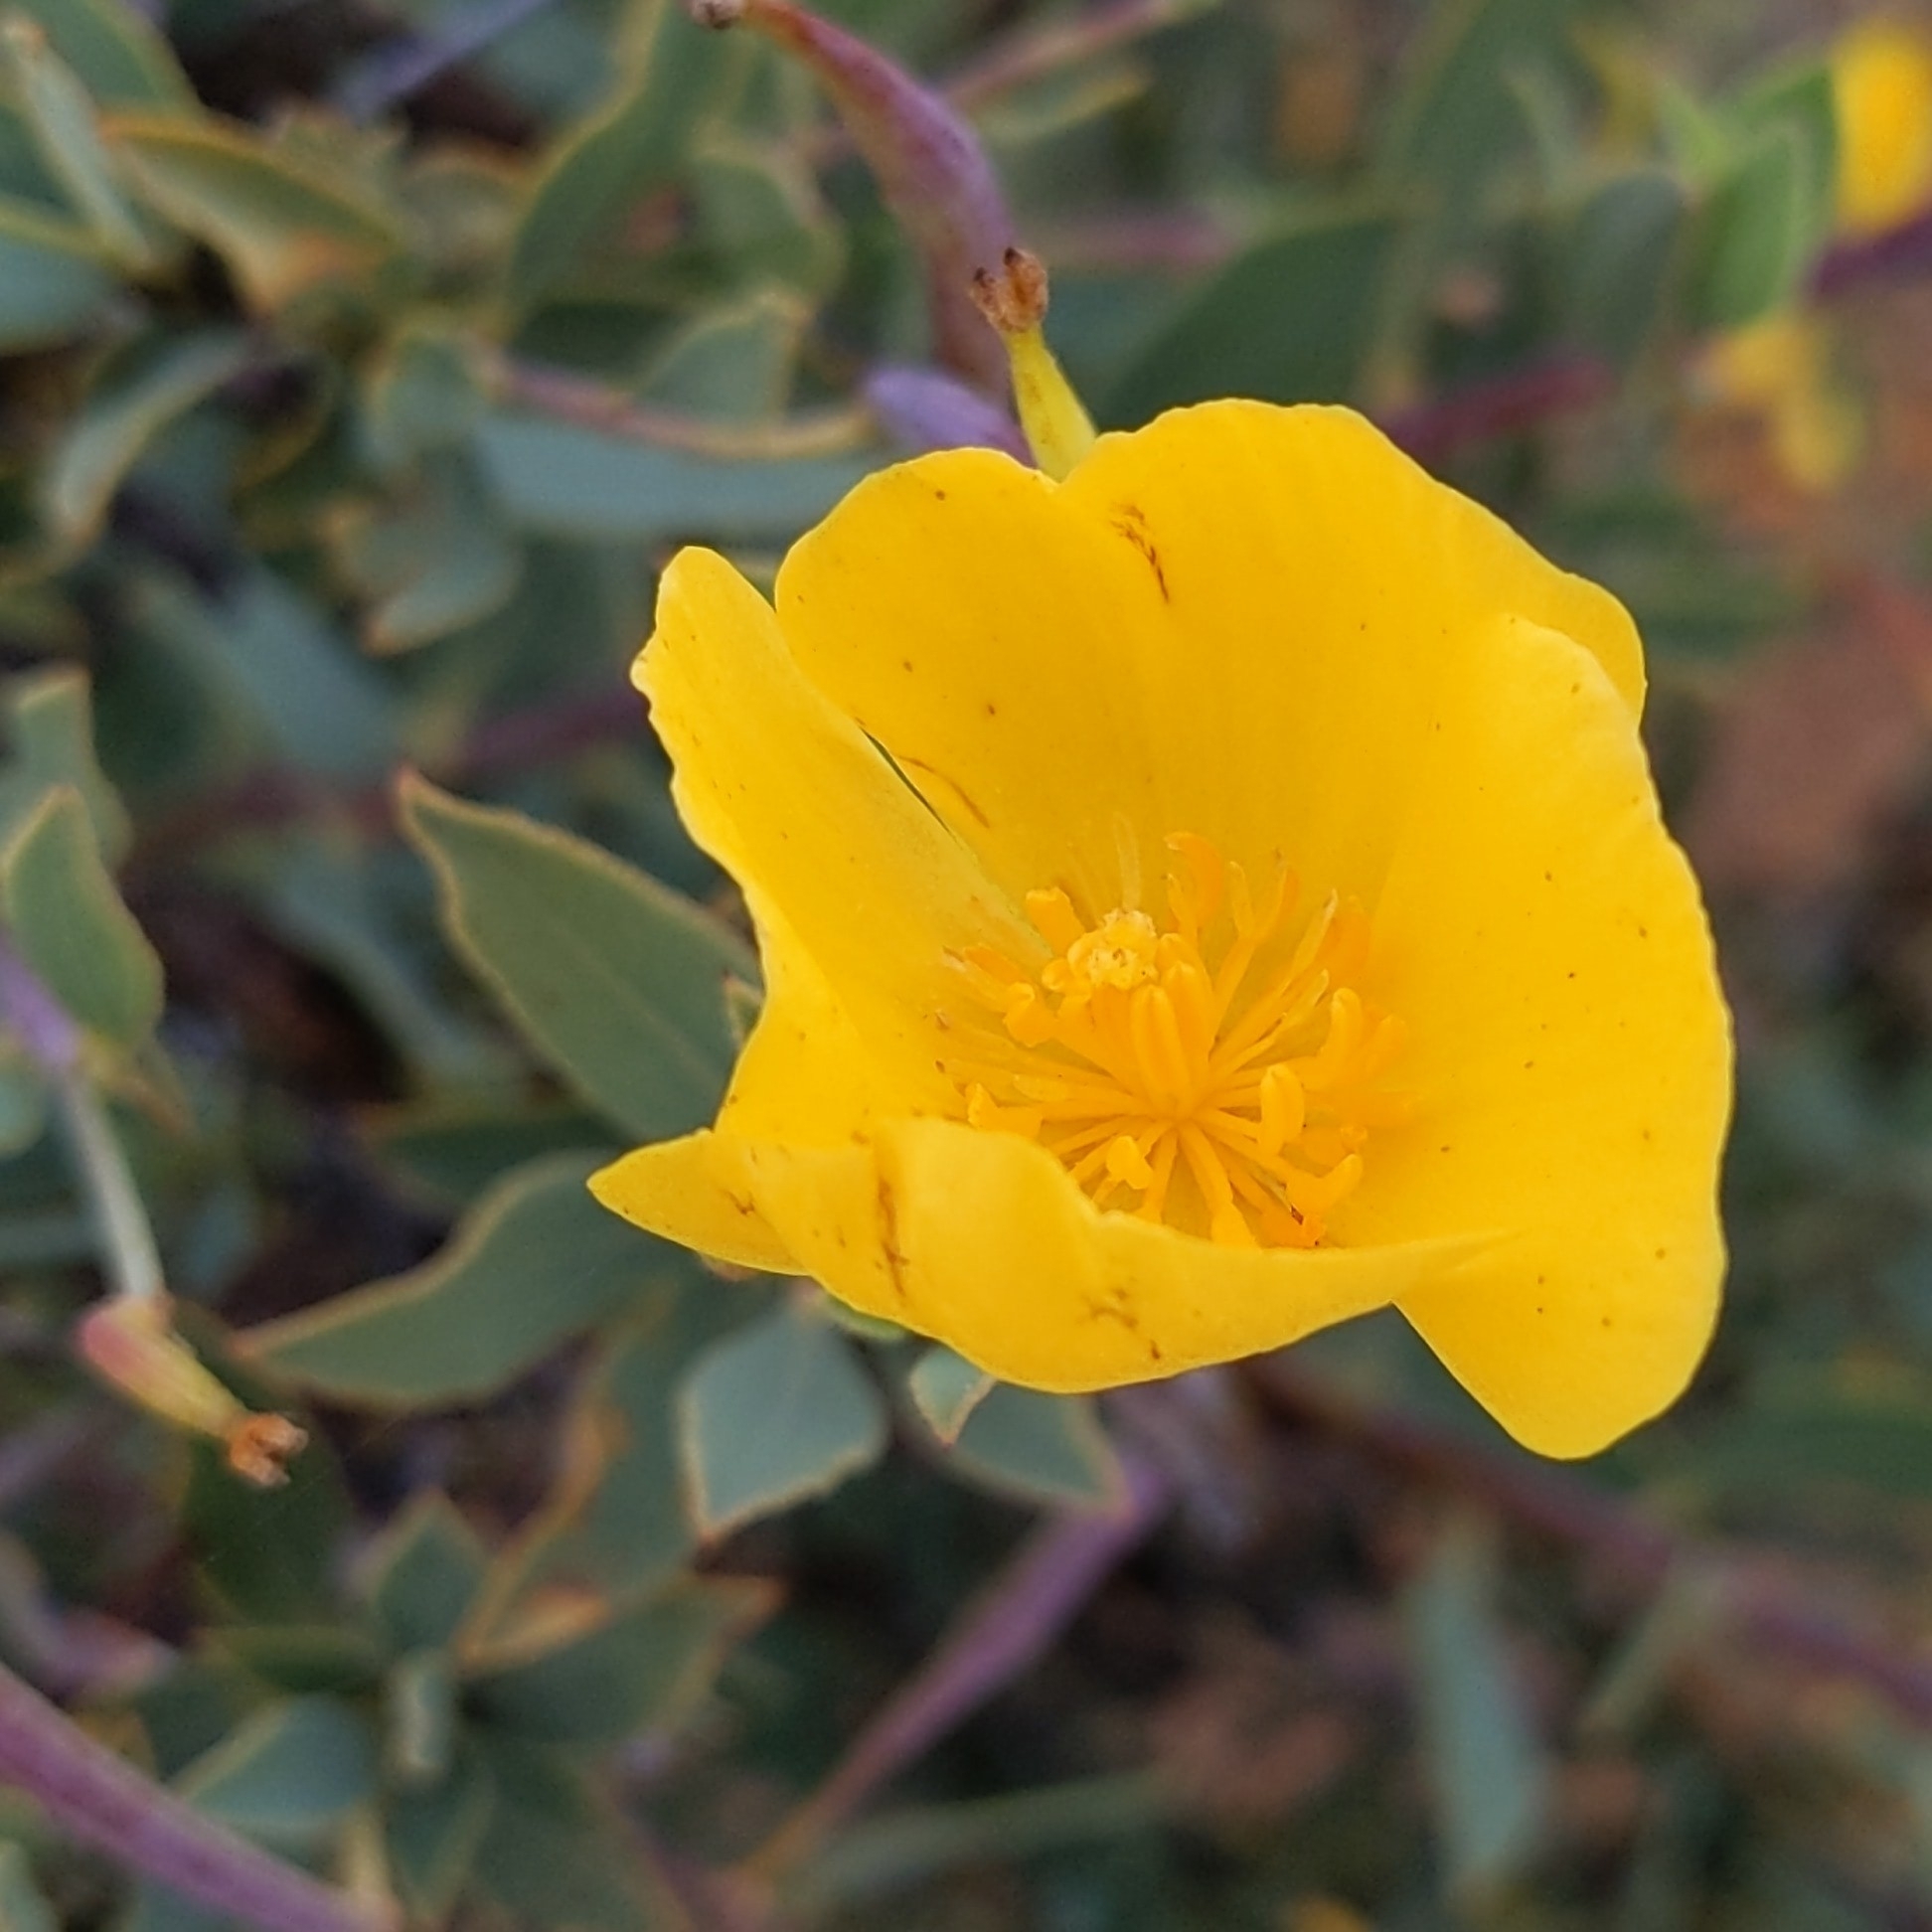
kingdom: Plantae
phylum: Tracheophyta
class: Magnoliopsida
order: Ranunculales
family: Papaveraceae
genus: Dendromecon
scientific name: Dendromecon rigida
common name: Tree poppy
